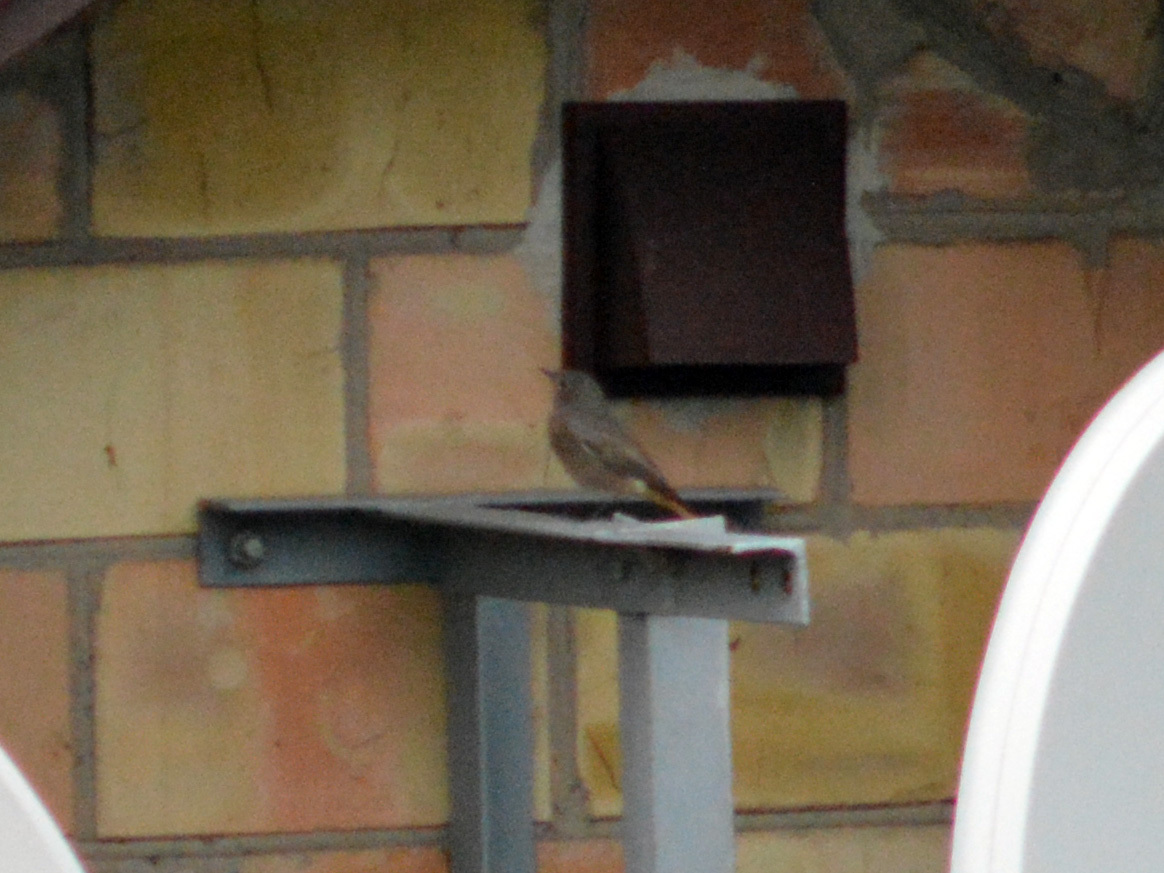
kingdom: Animalia
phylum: Chordata
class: Aves
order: Passeriformes
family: Muscicapidae
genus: Phoenicurus
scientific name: Phoenicurus ochruros
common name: Black redstart
